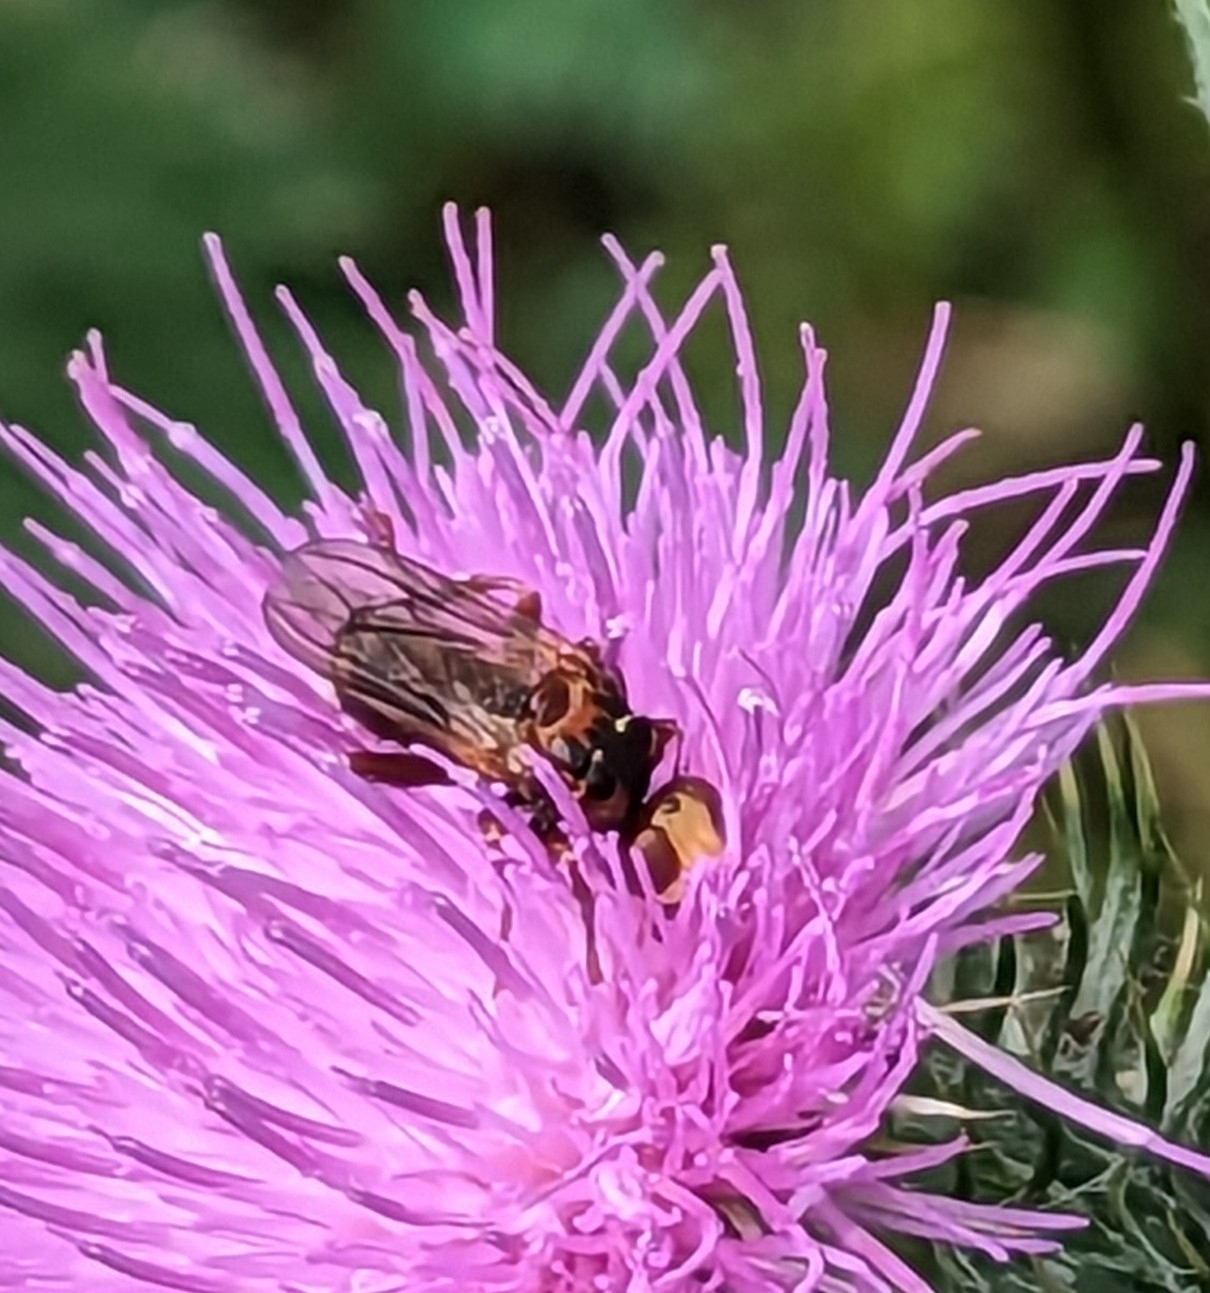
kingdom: Animalia
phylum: Arthropoda
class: Insecta
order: Diptera
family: Conopidae
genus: Sicus
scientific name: Sicus ferrugineus
